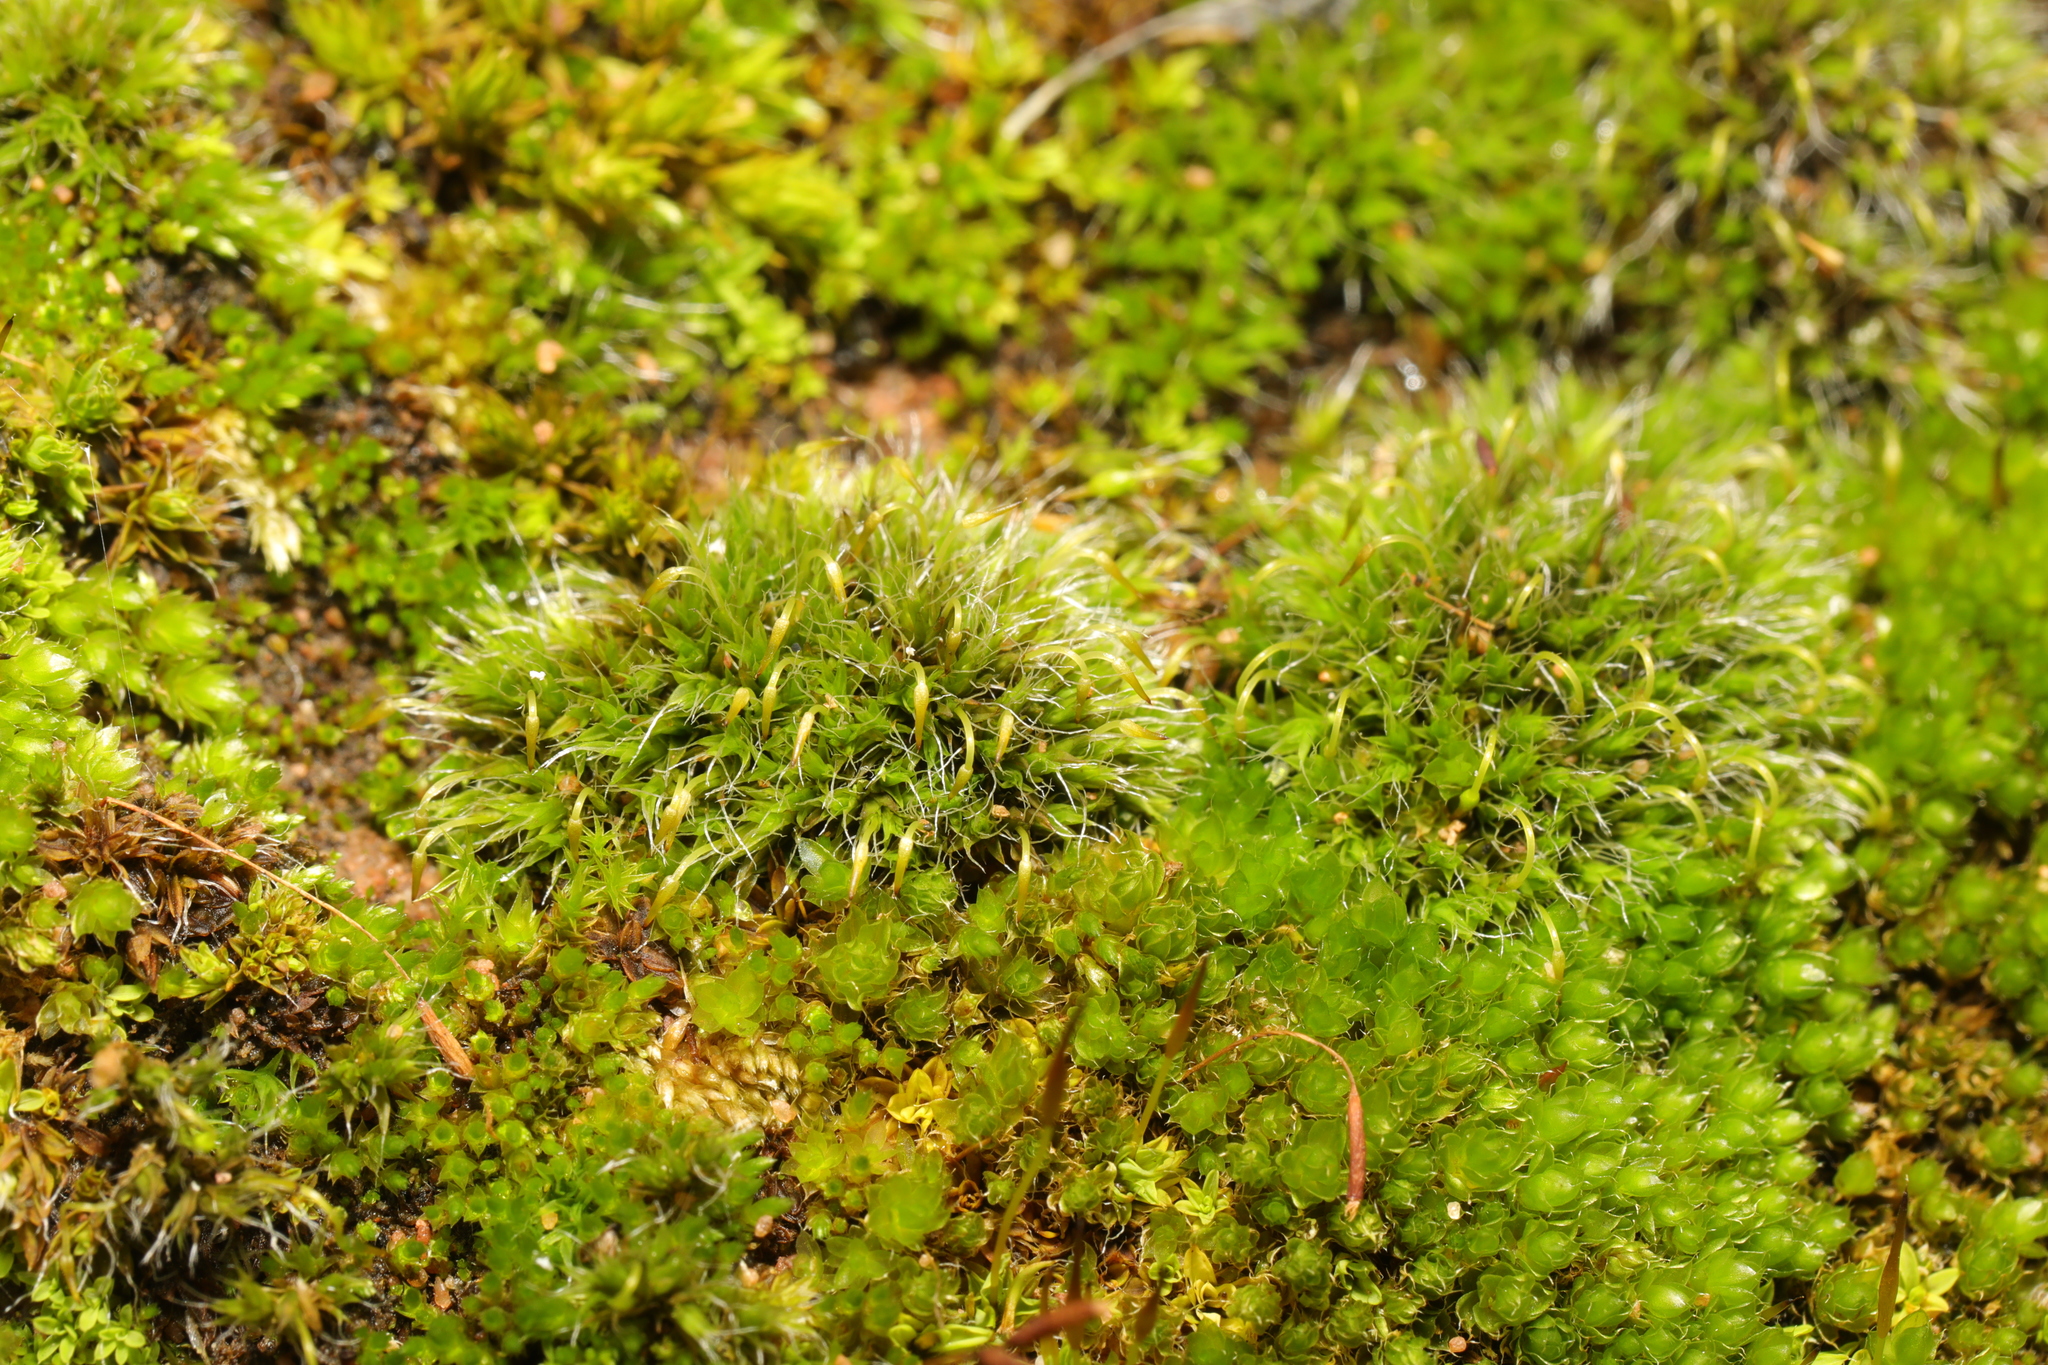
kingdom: Plantae
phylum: Bryophyta
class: Bryopsida
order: Grimmiales
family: Grimmiaceae
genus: Grimmia
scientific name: Grimmia pulvinata
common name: Grey-cushioned grimmia
